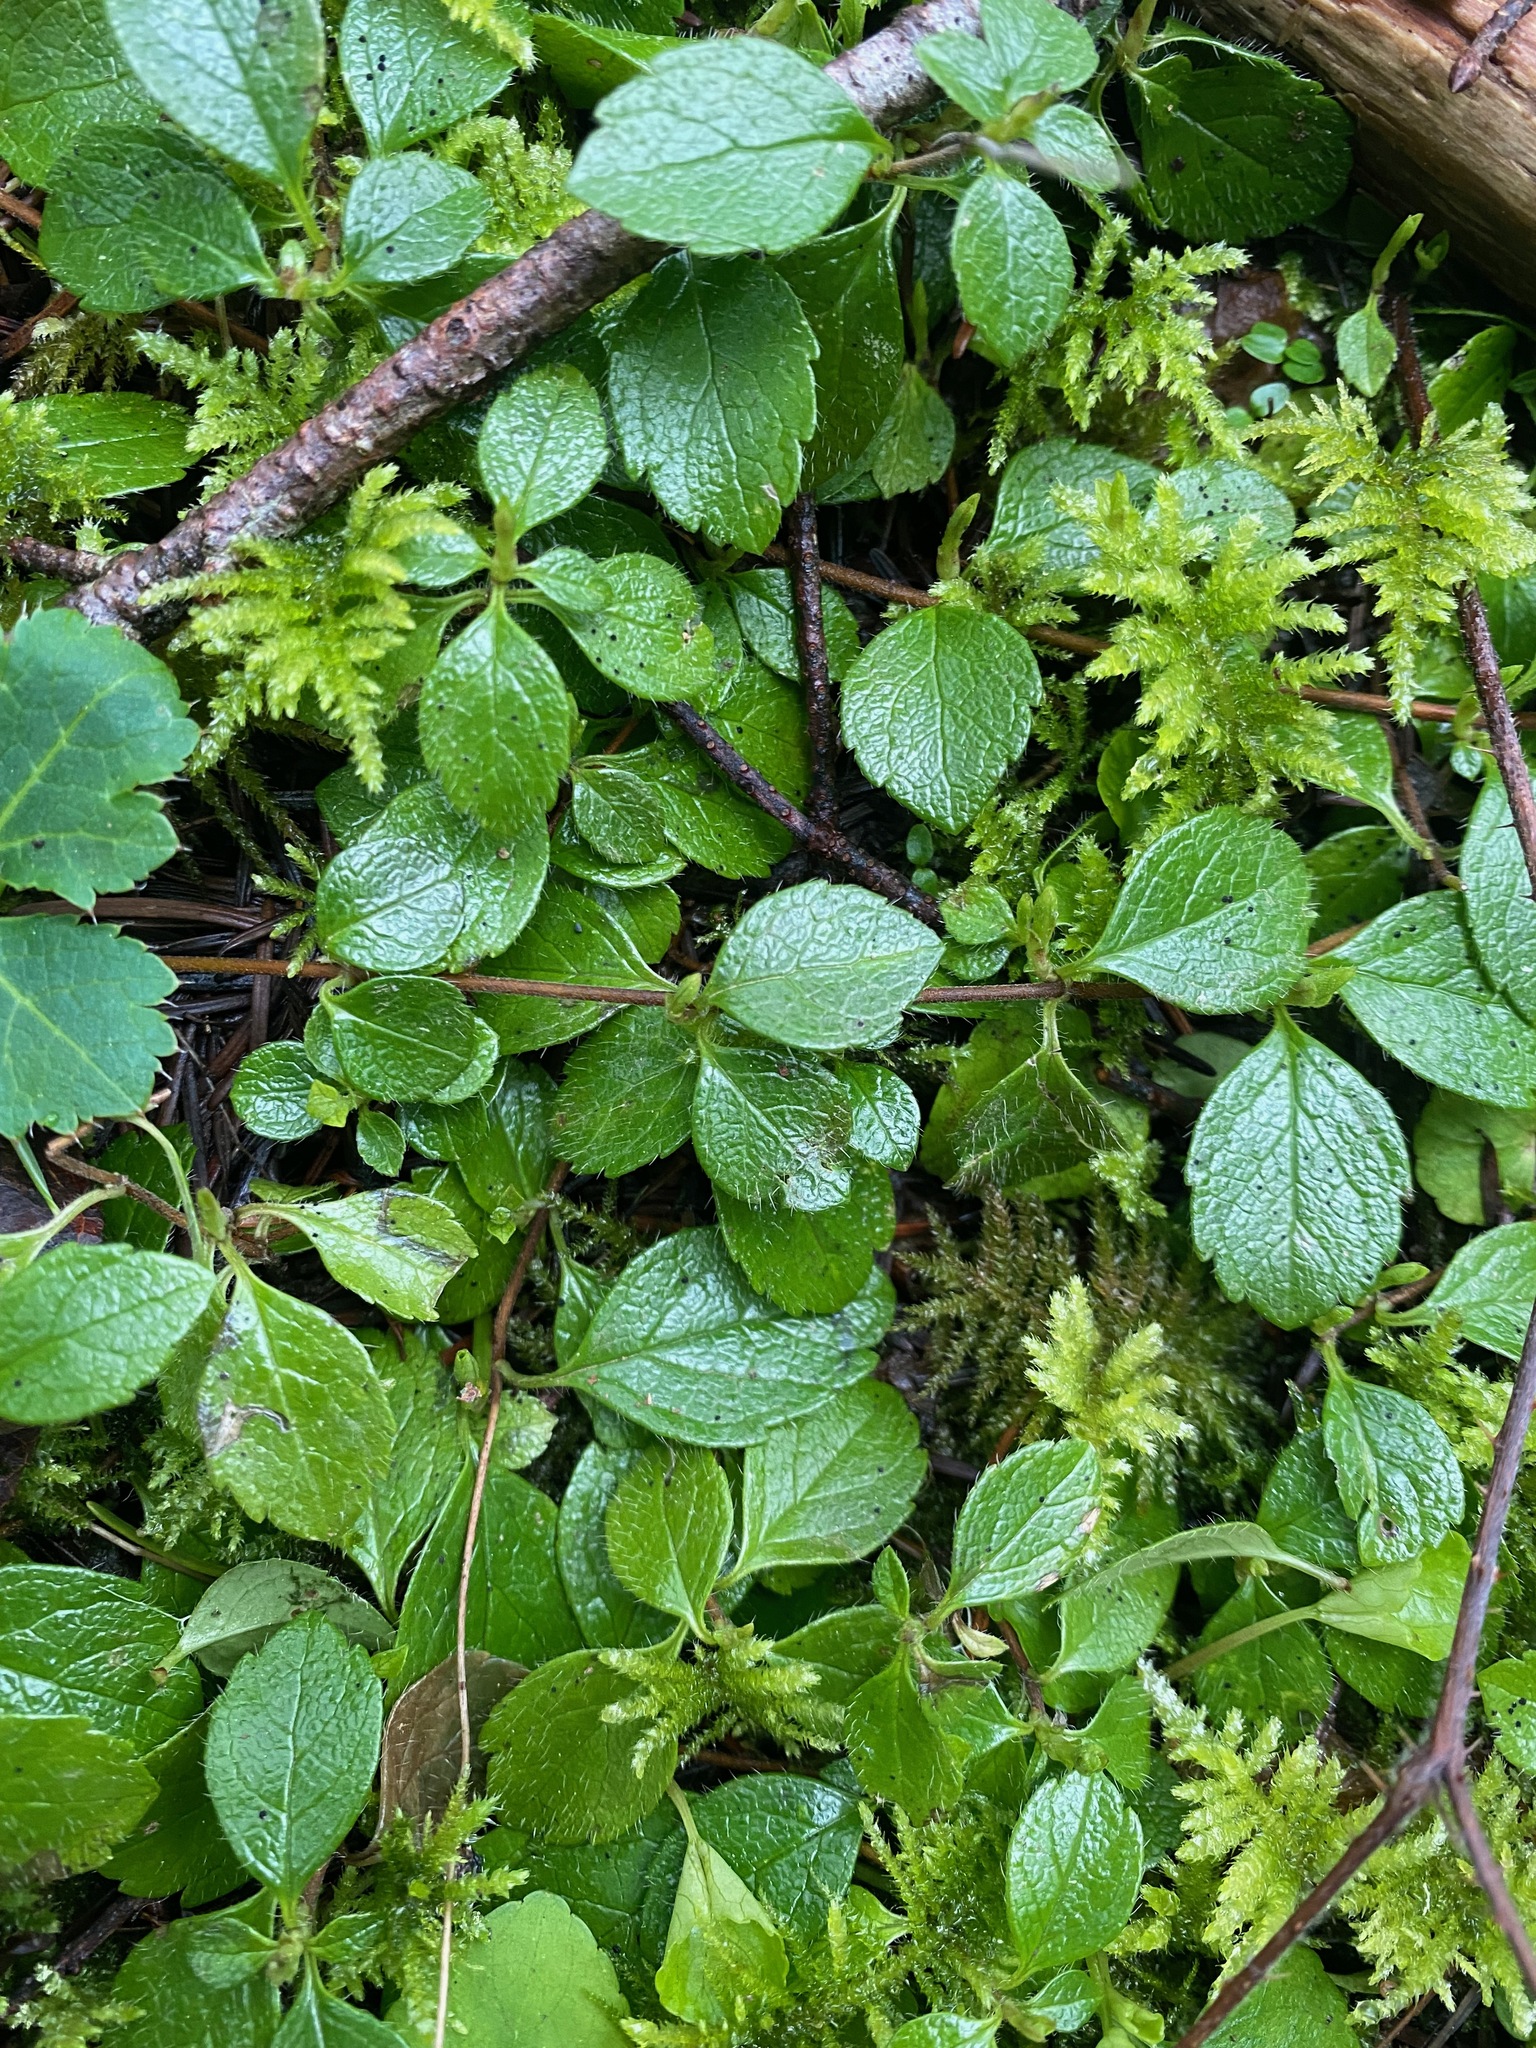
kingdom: Plantae
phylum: Tracheophyta
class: Magnoliopsida
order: Dipsacales
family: Caprifoliaceae
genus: Linnaea
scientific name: Linnaea borealis
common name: Twinflower
